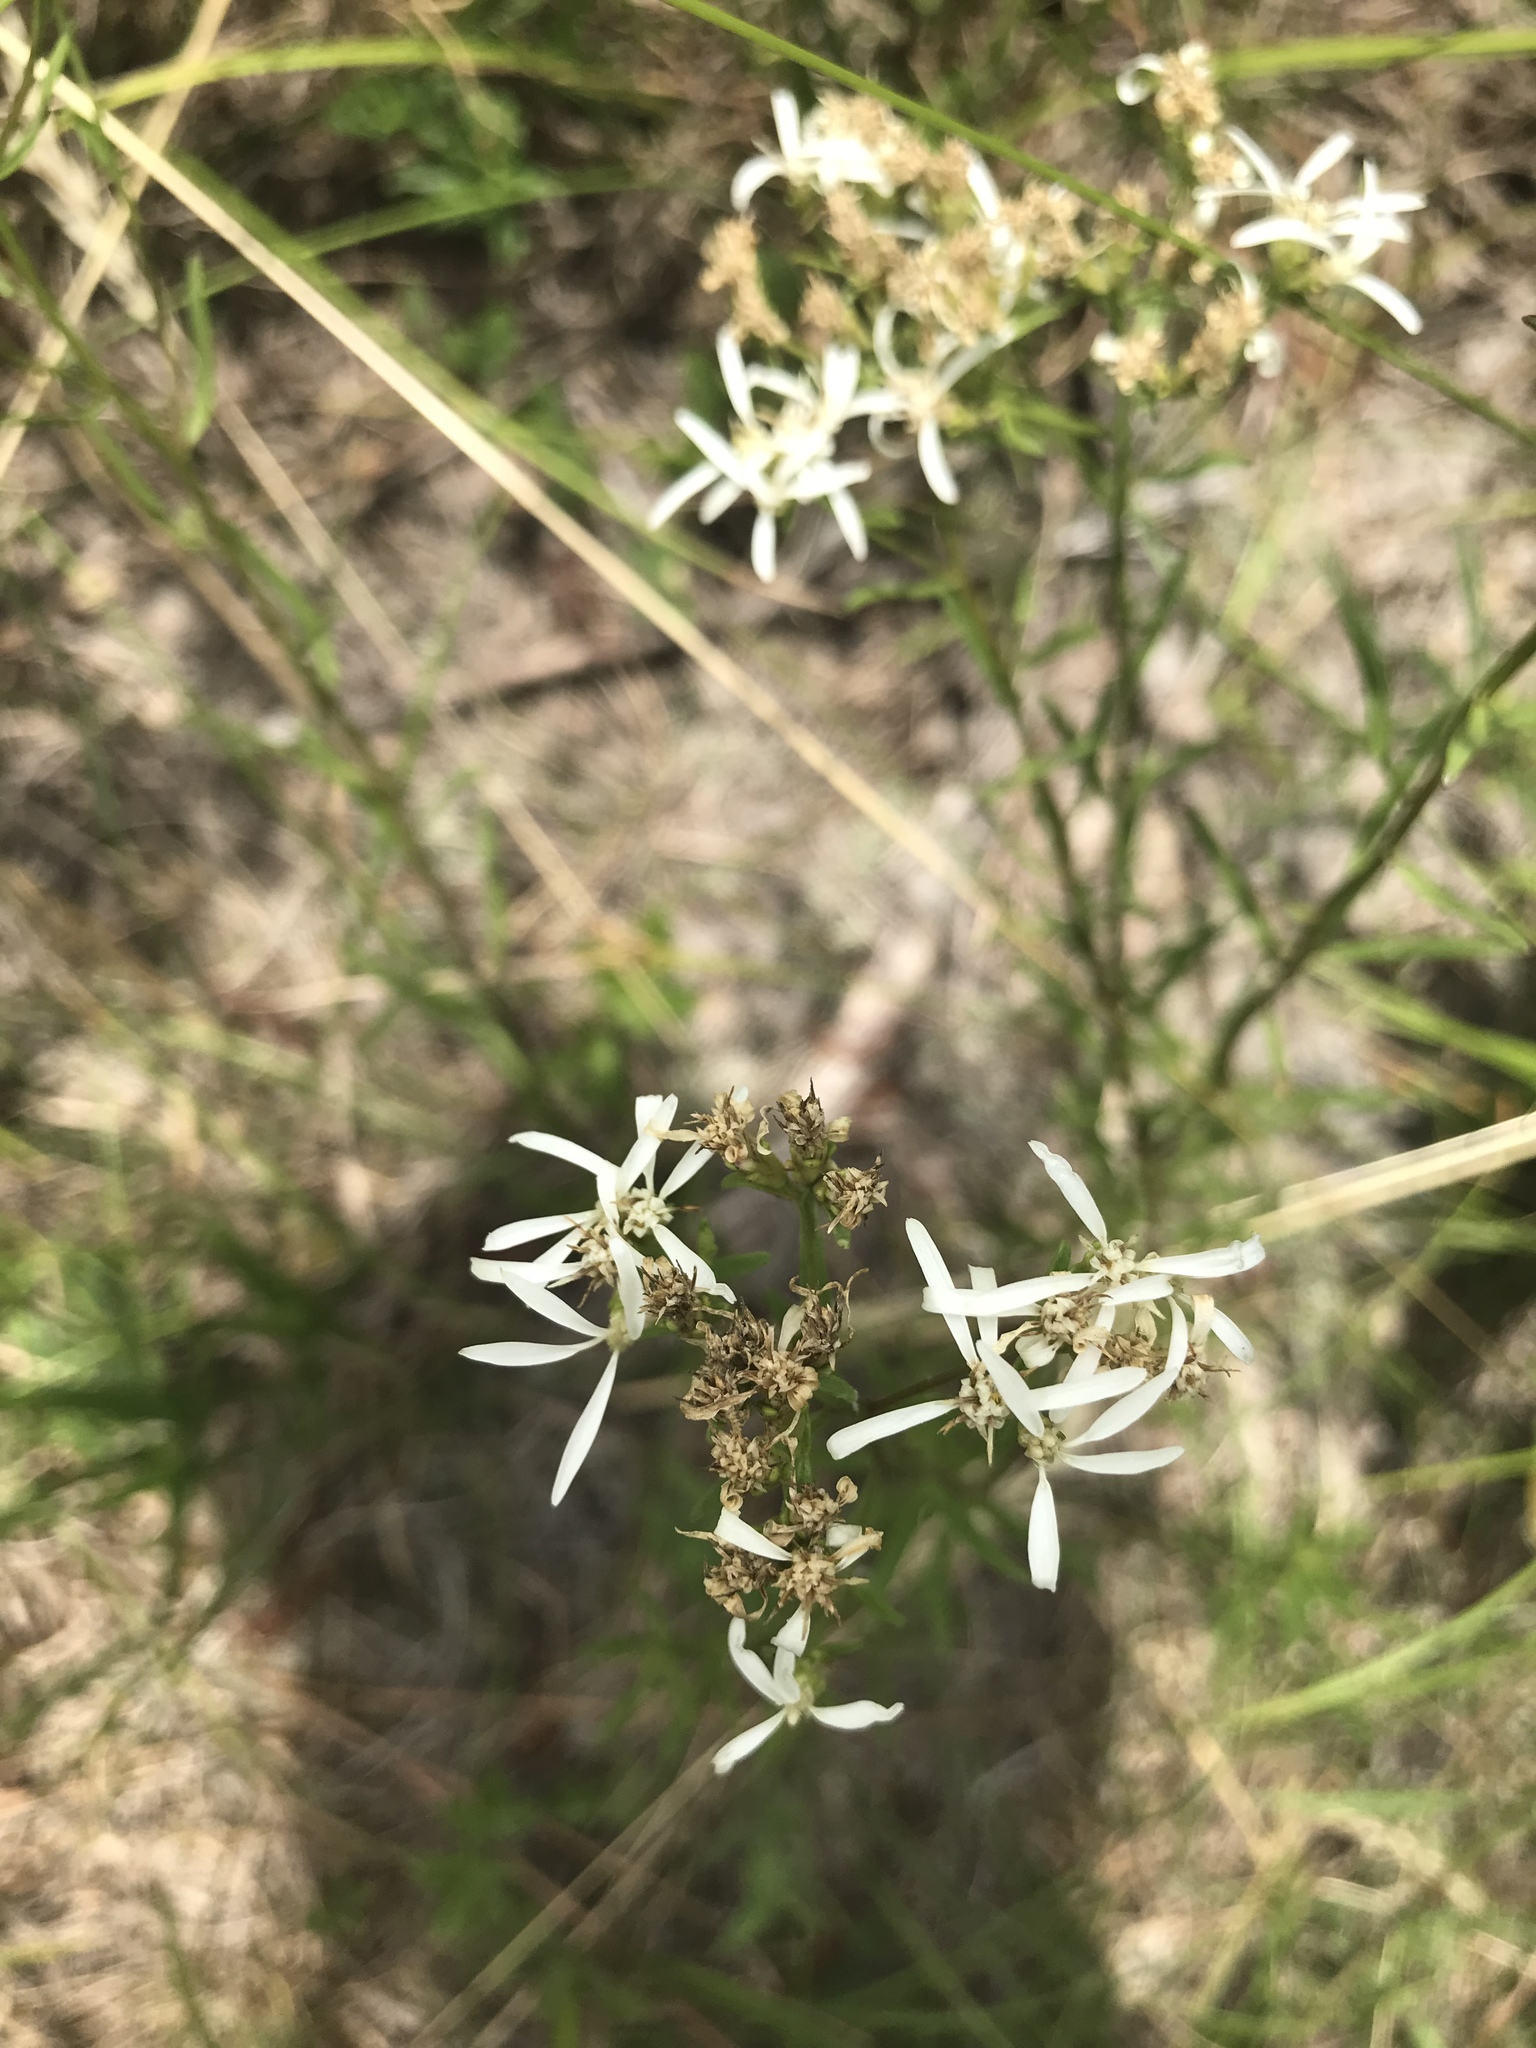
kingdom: Plantae
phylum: Tracheophyta
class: Magnoliopsida
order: Asterales
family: Asteraceae
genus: Sericocarpus
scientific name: Sericocarpus linifolius
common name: Narrow-leaf aster
